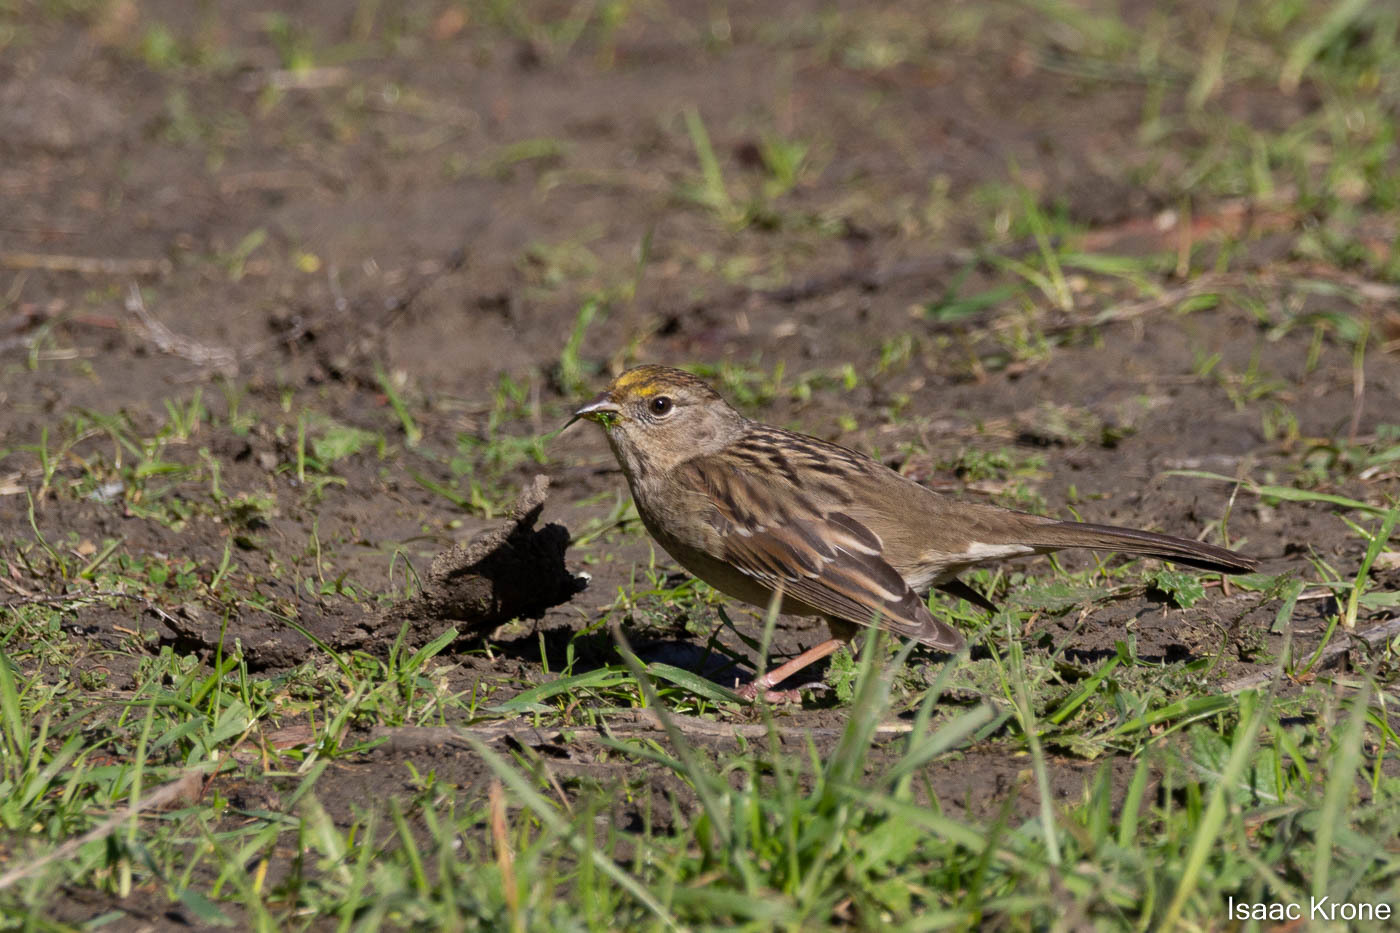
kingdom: Animalia
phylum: Chordata
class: Aves
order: Passeriformes
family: Passerellidae
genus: Zonotrichia
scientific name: Zonotrichia atricapilla
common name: Golden-crowned sparrow
